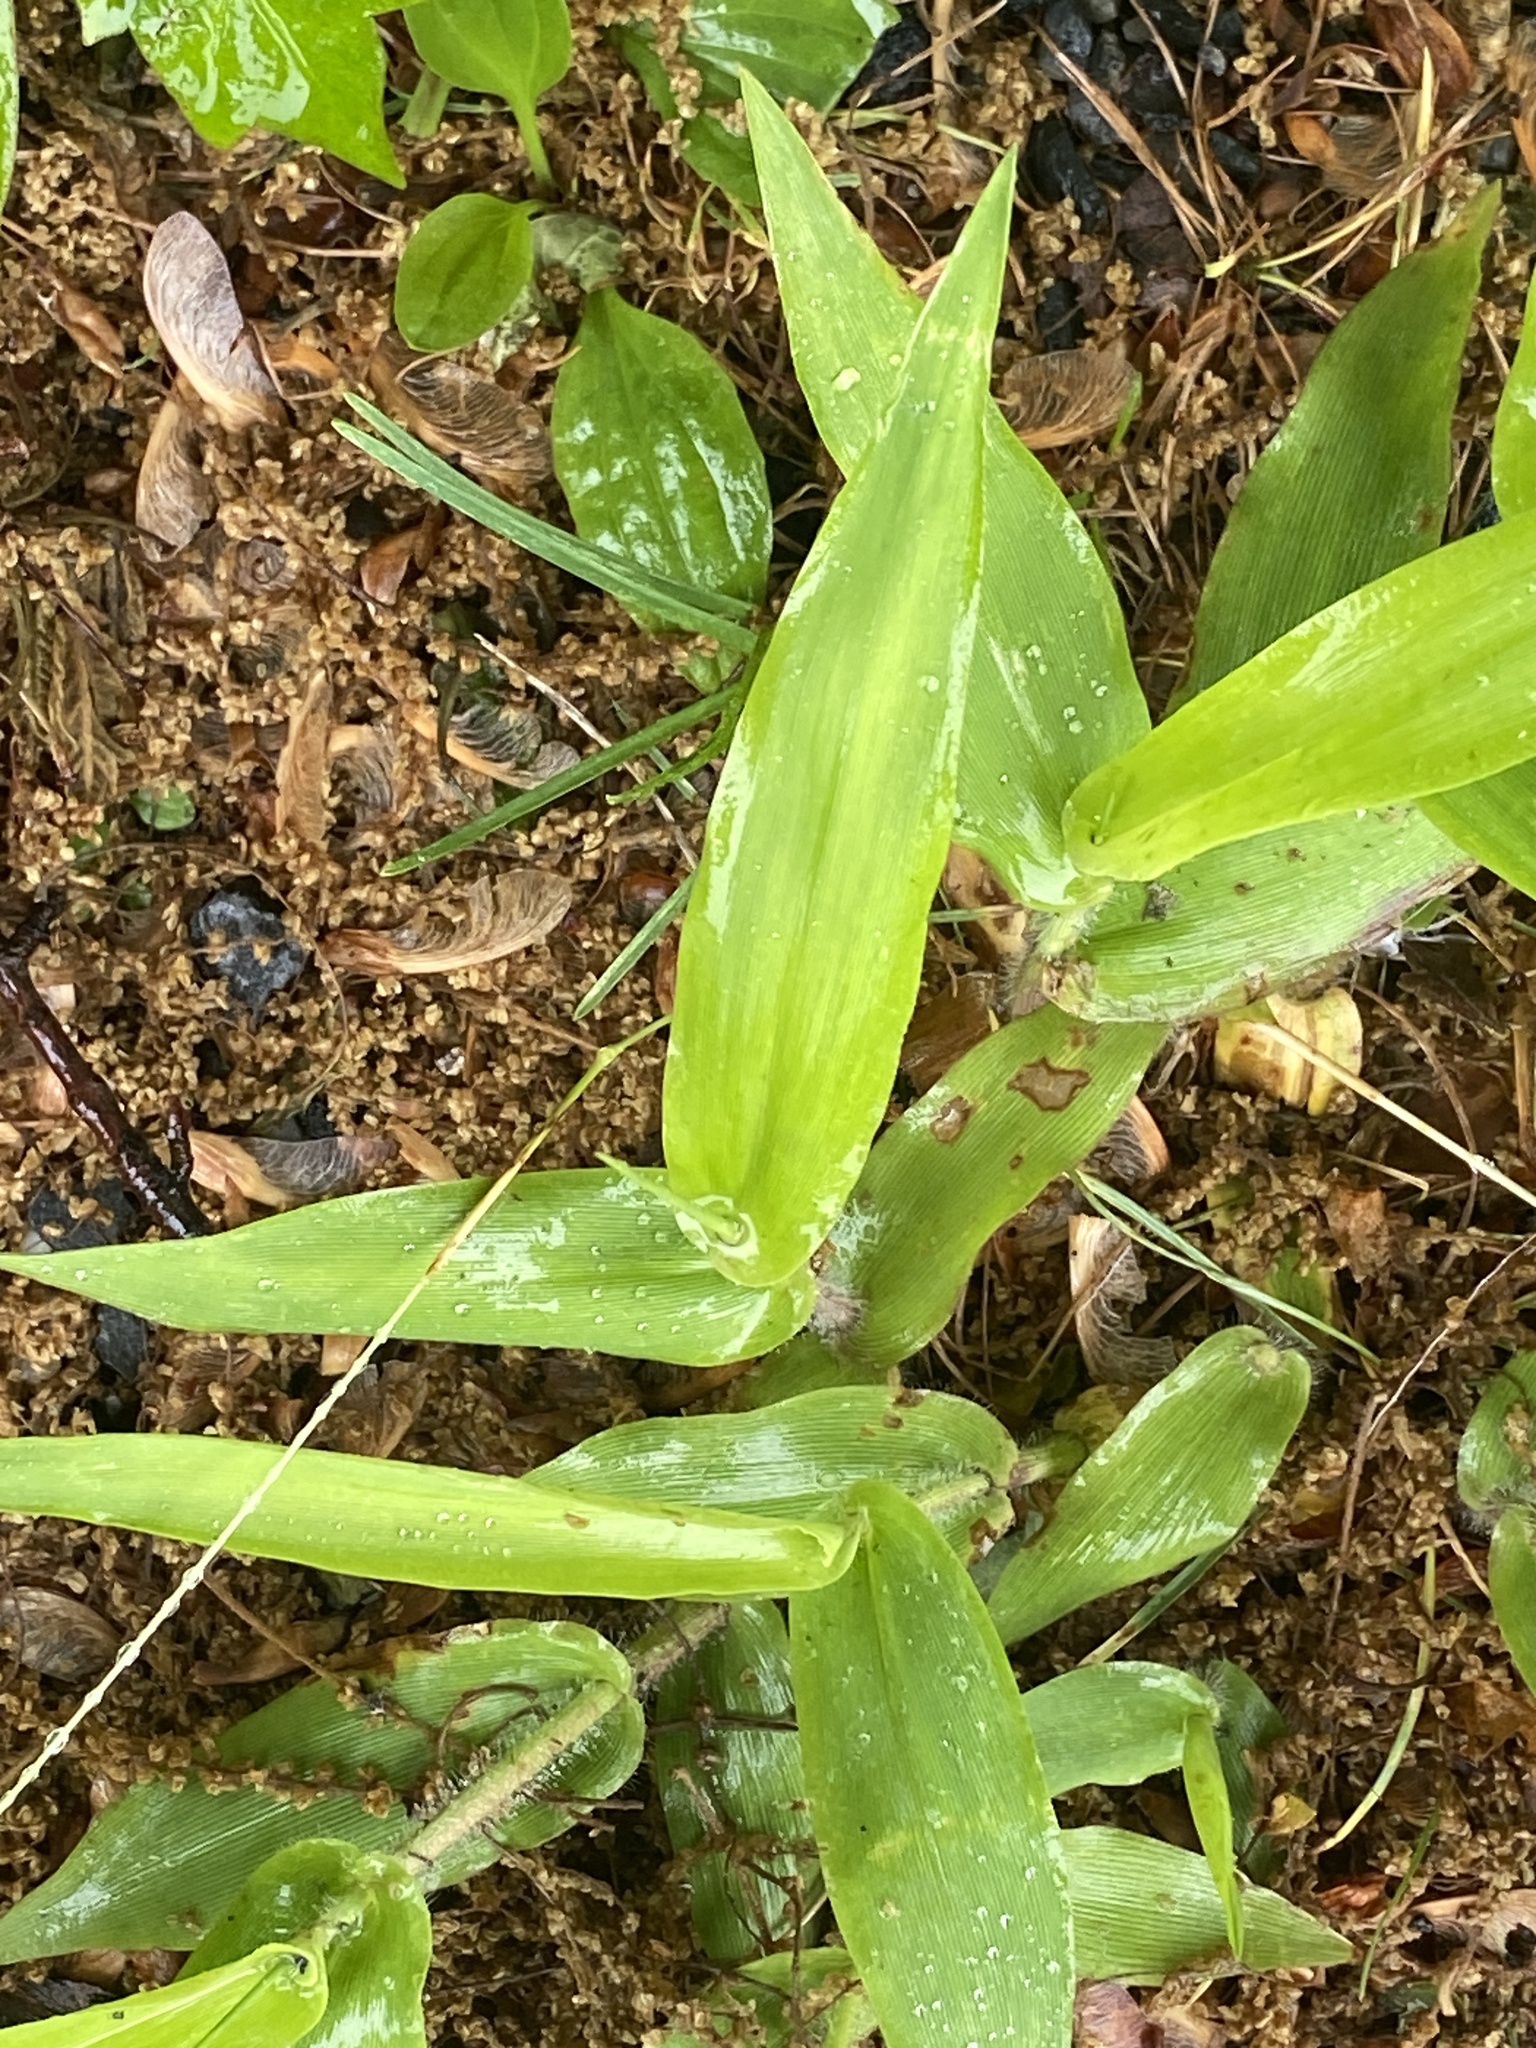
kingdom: Plantae
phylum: Tracheophyta
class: Liliopsida
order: Poales
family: Poaceae
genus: Dichanthelium
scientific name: Dichanthelium clandestinum
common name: Deer-tongue grass
